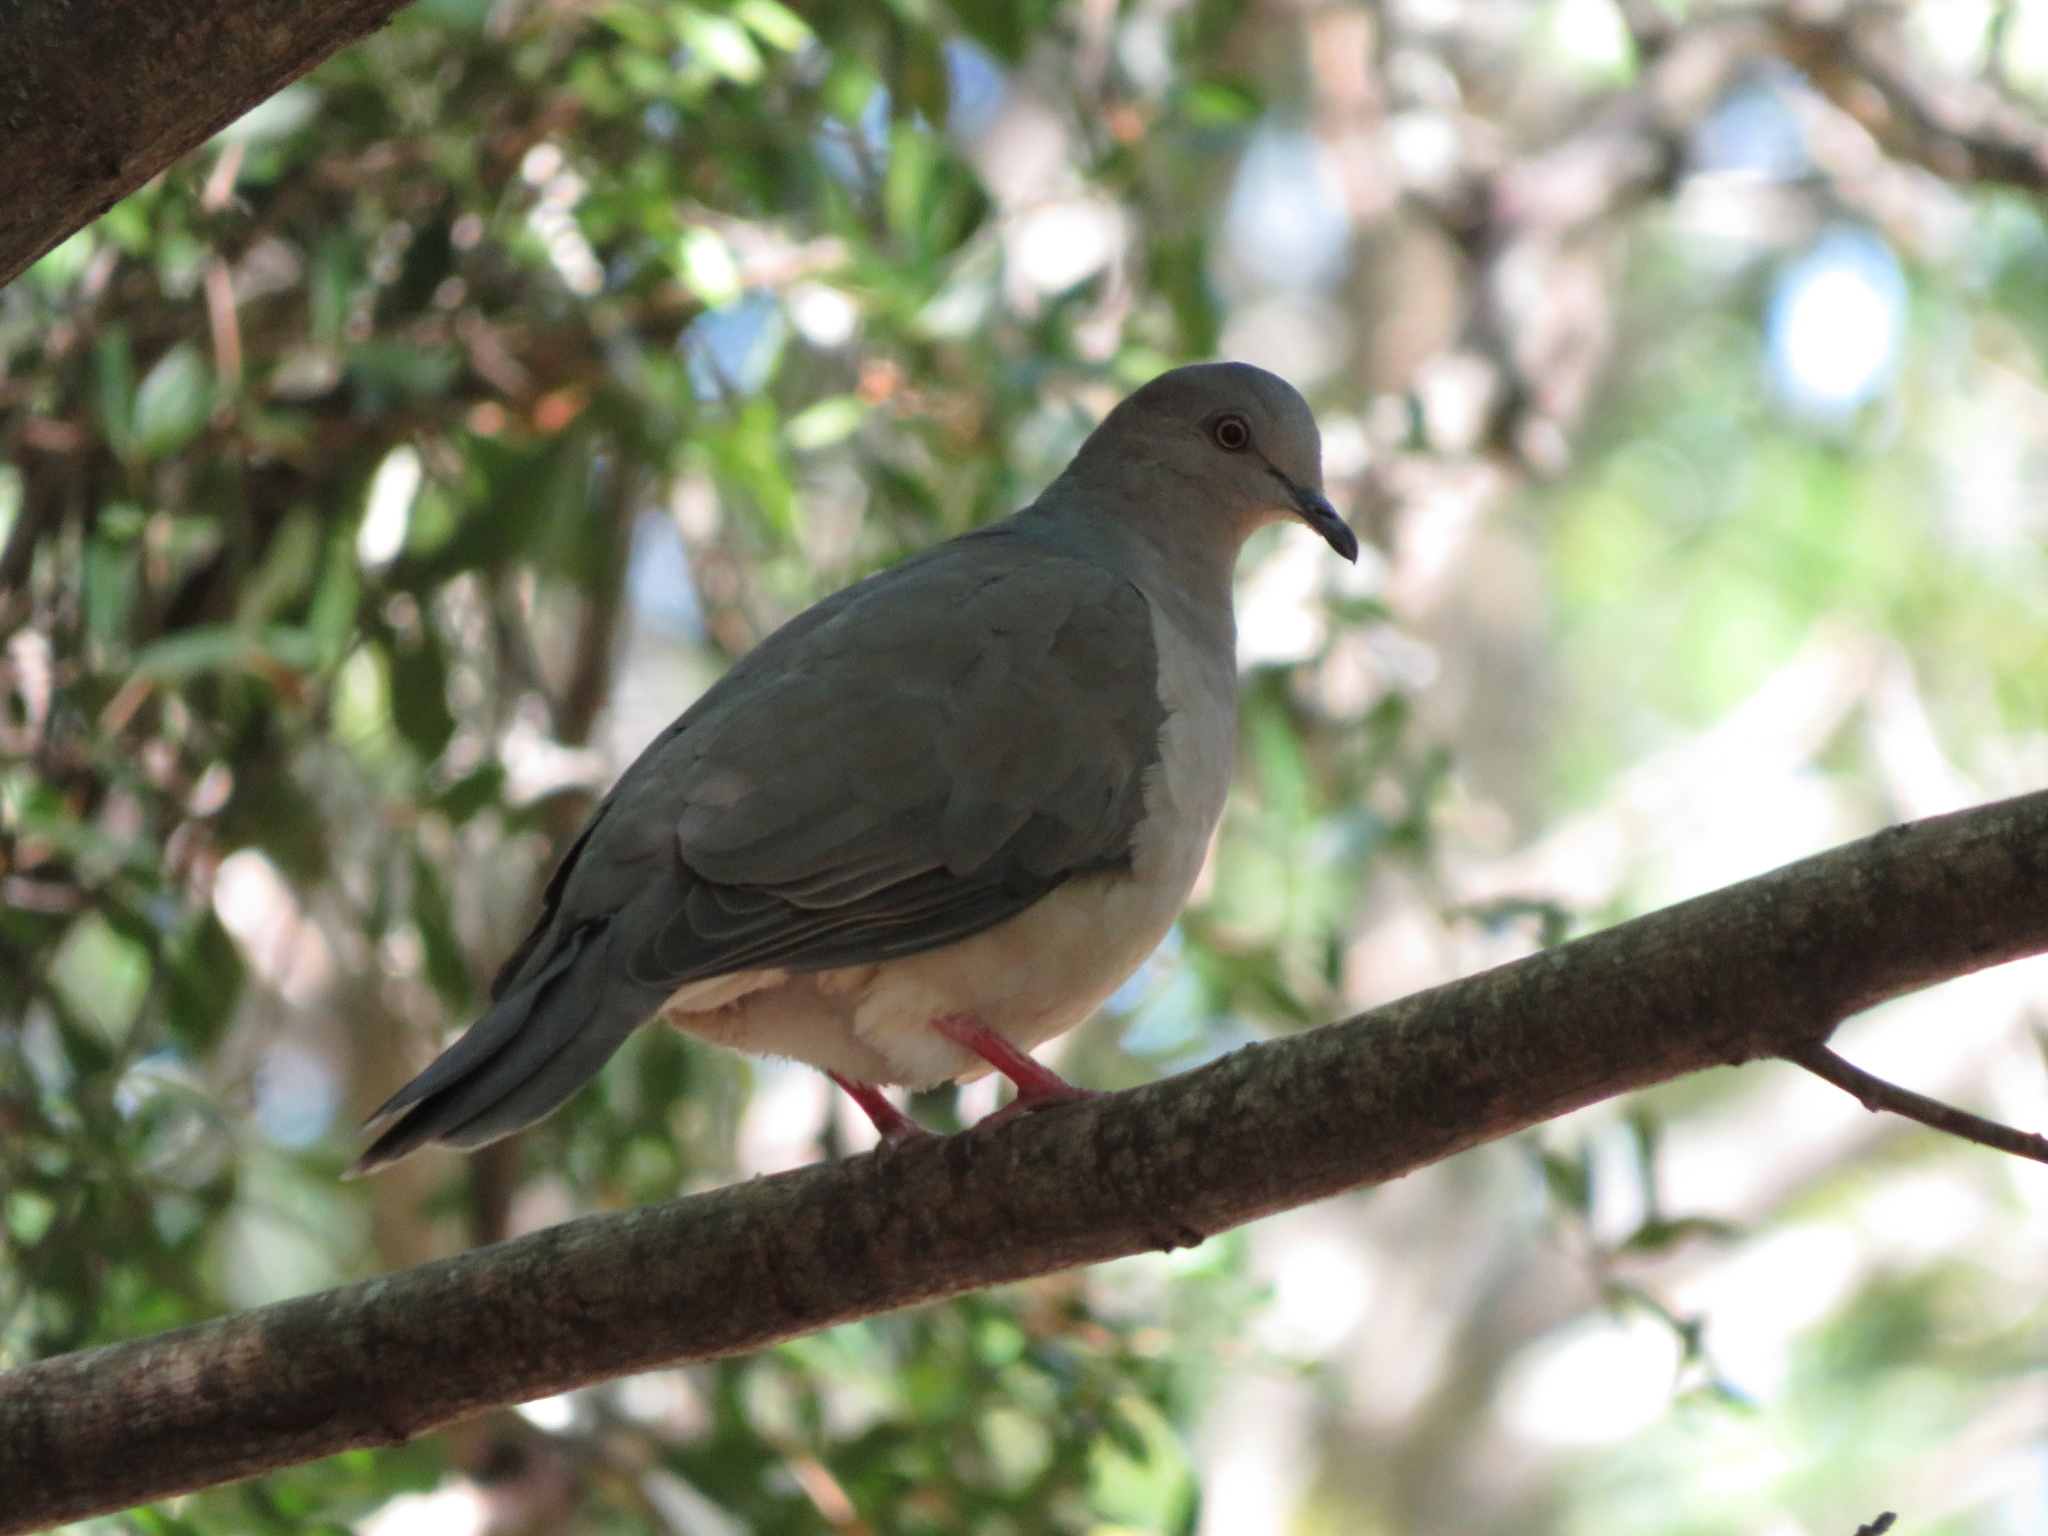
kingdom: Animalia
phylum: Chordata
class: Aves
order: Columbiformes
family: Columbidae
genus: Leptotila
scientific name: Leptotila verreauxi
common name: White-tipped dove
